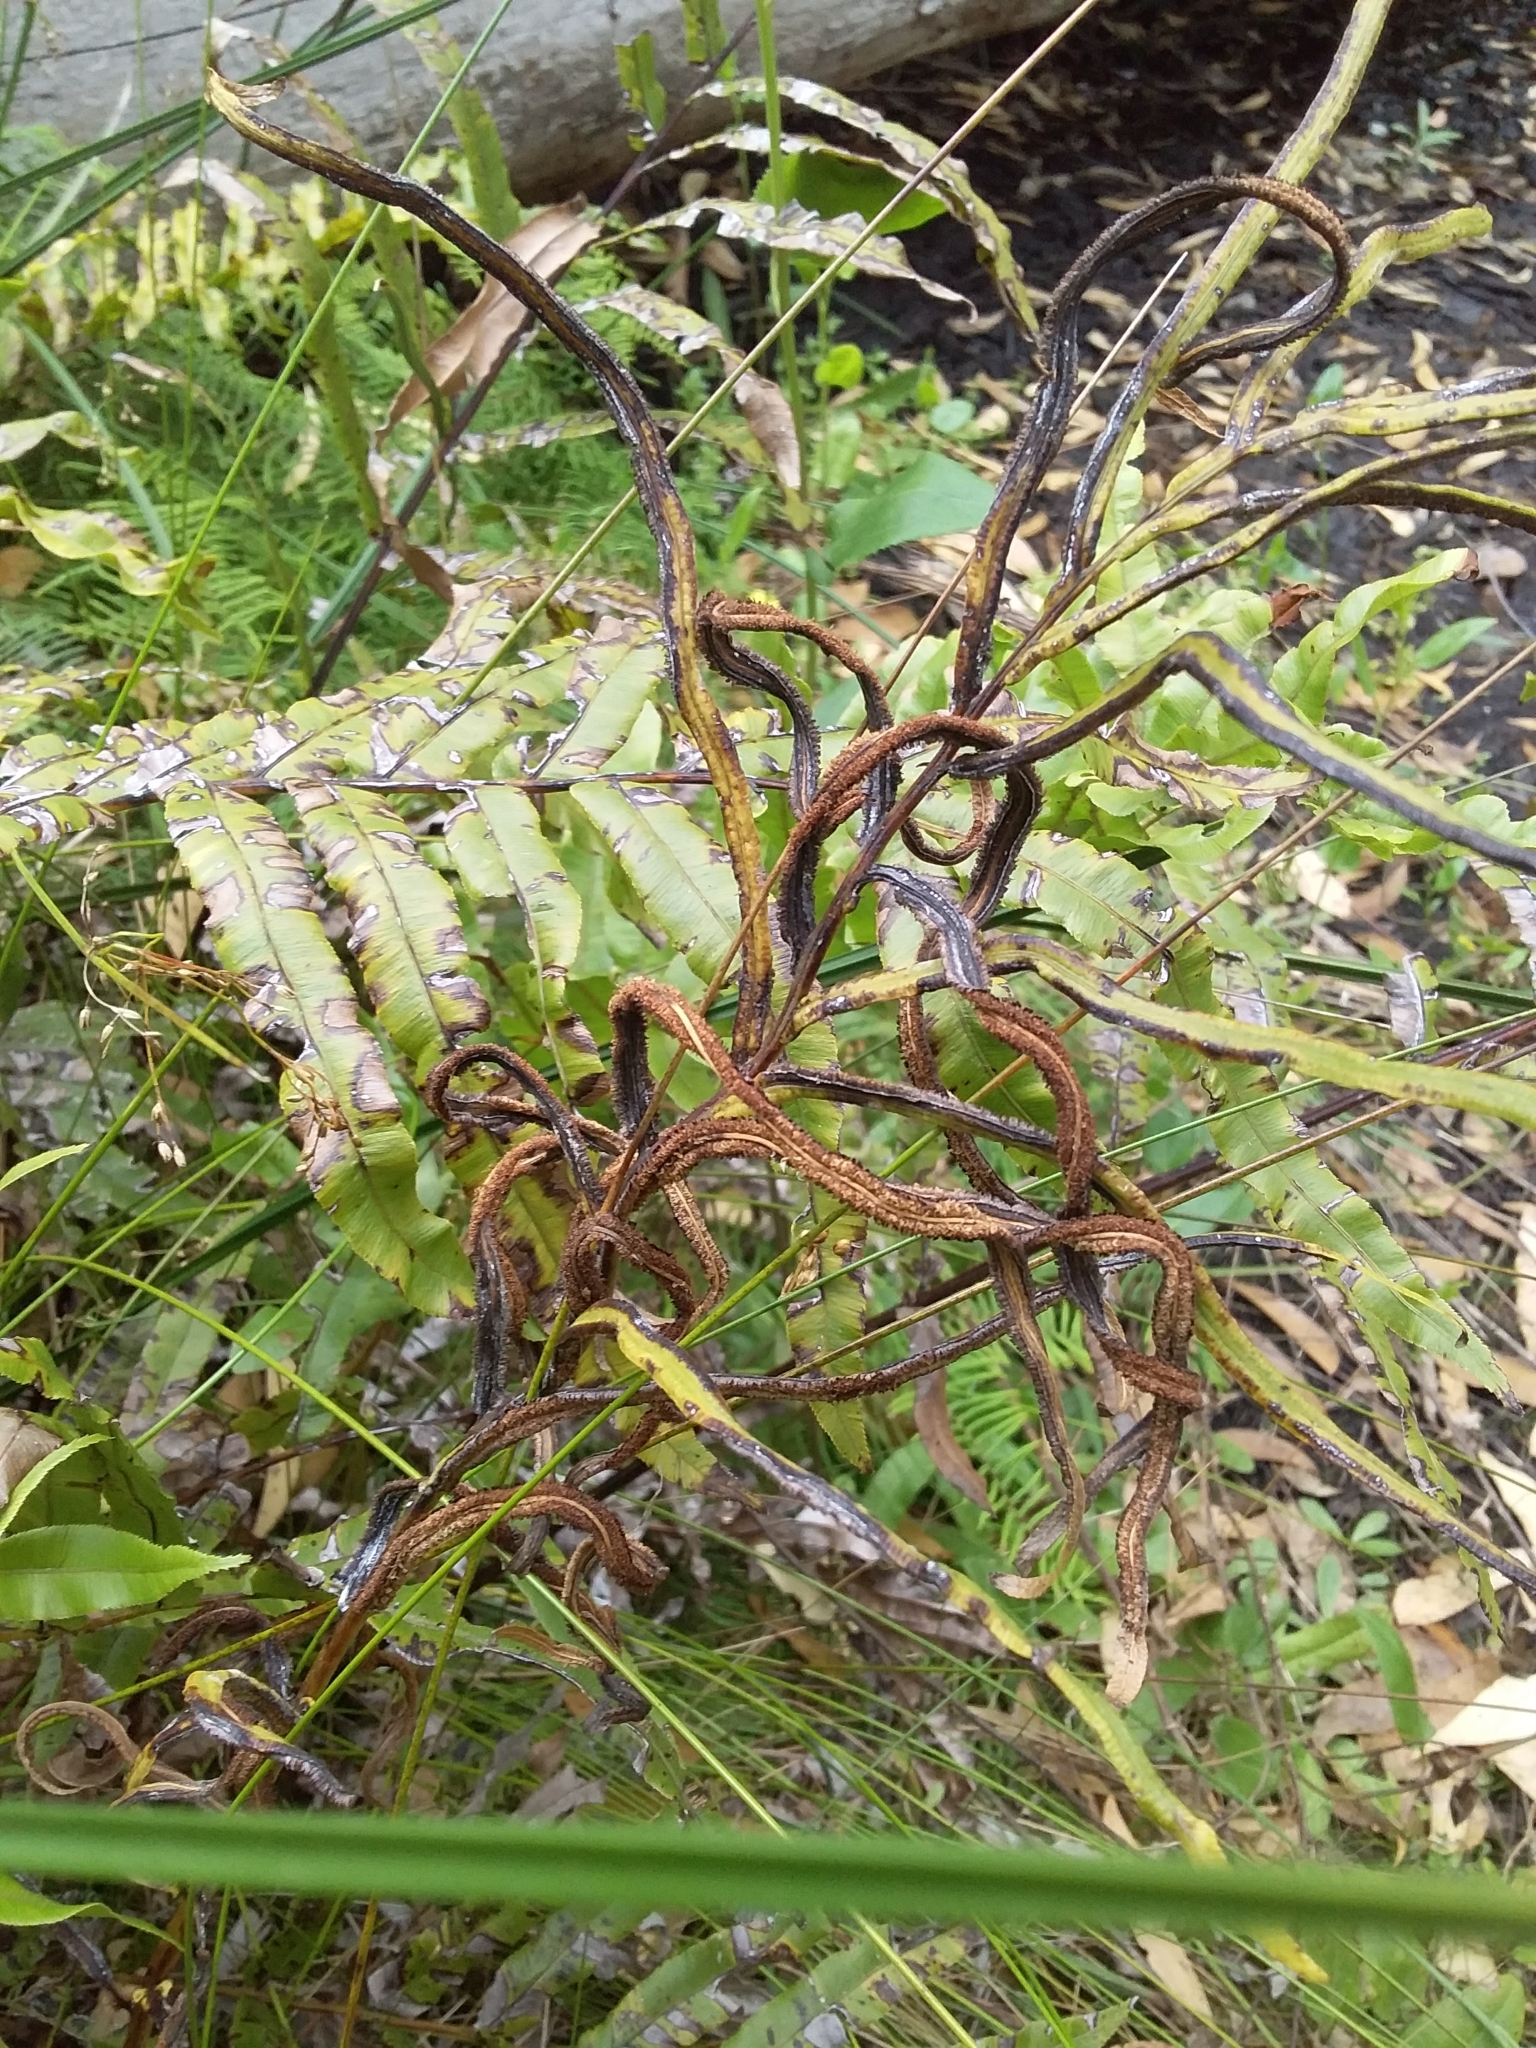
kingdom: Plantae
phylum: Tracheophyta
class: Polypodiopsida
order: Polypodiales
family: Blechnaceae
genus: Parablechnum
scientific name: Parablechnum minus
